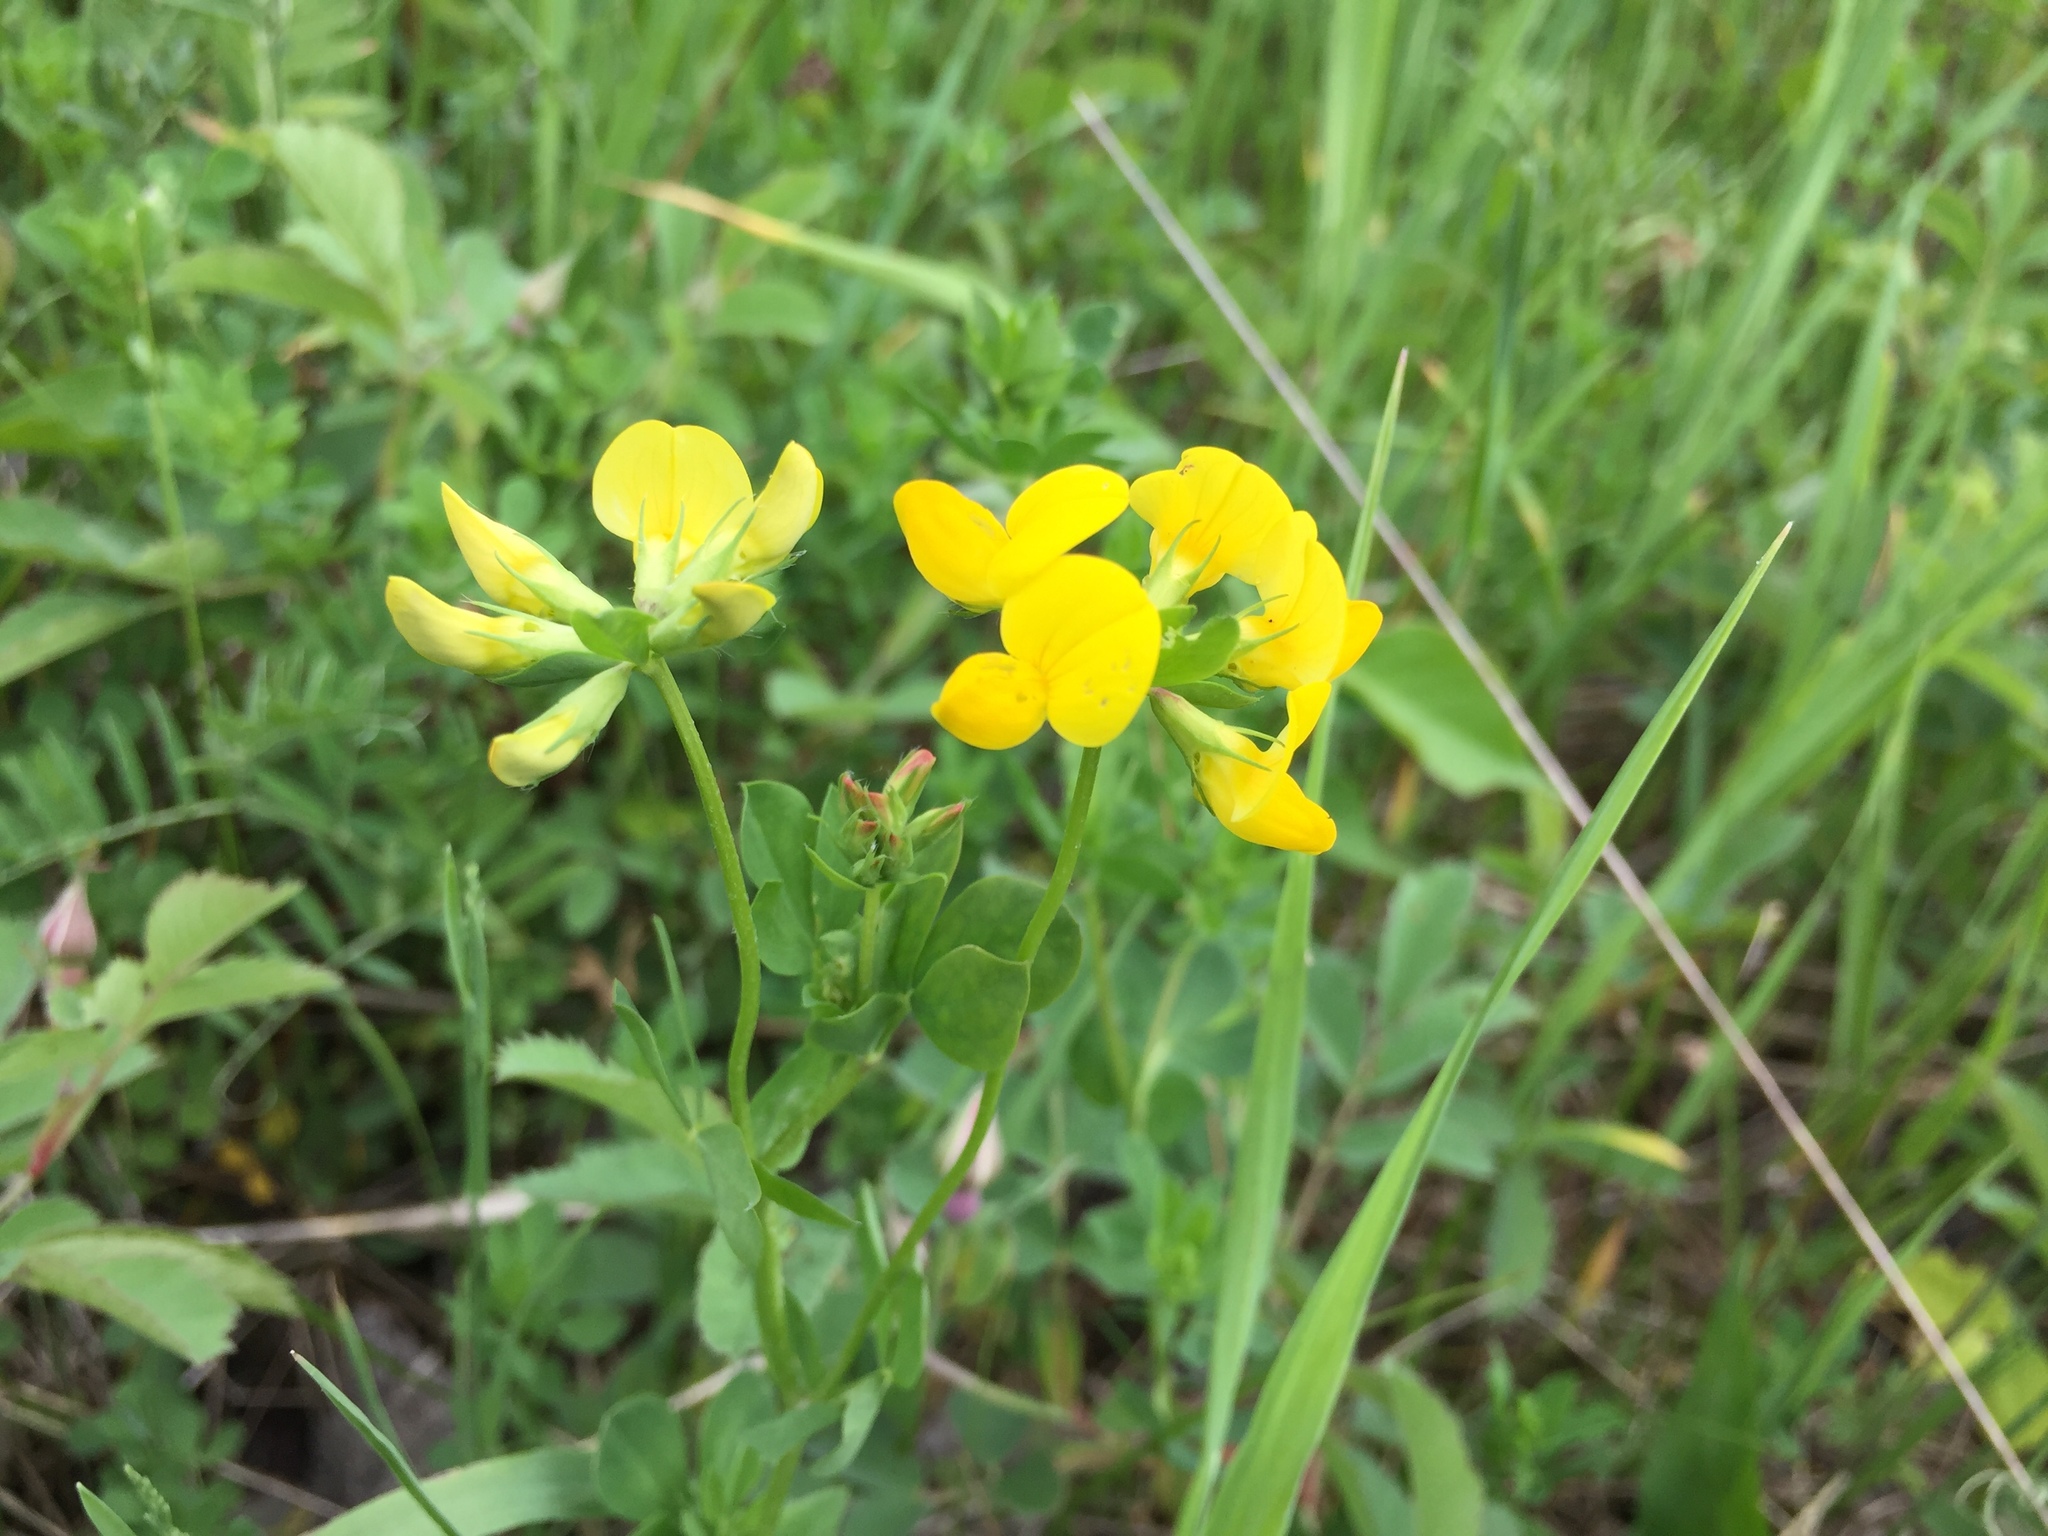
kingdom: Plantae
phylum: Tracheophyta
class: Magnoliopsida
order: Fabales
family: Fabaceae
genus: Lotus
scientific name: Lotus corniculatus
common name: Common bird's-foot-trefoil
